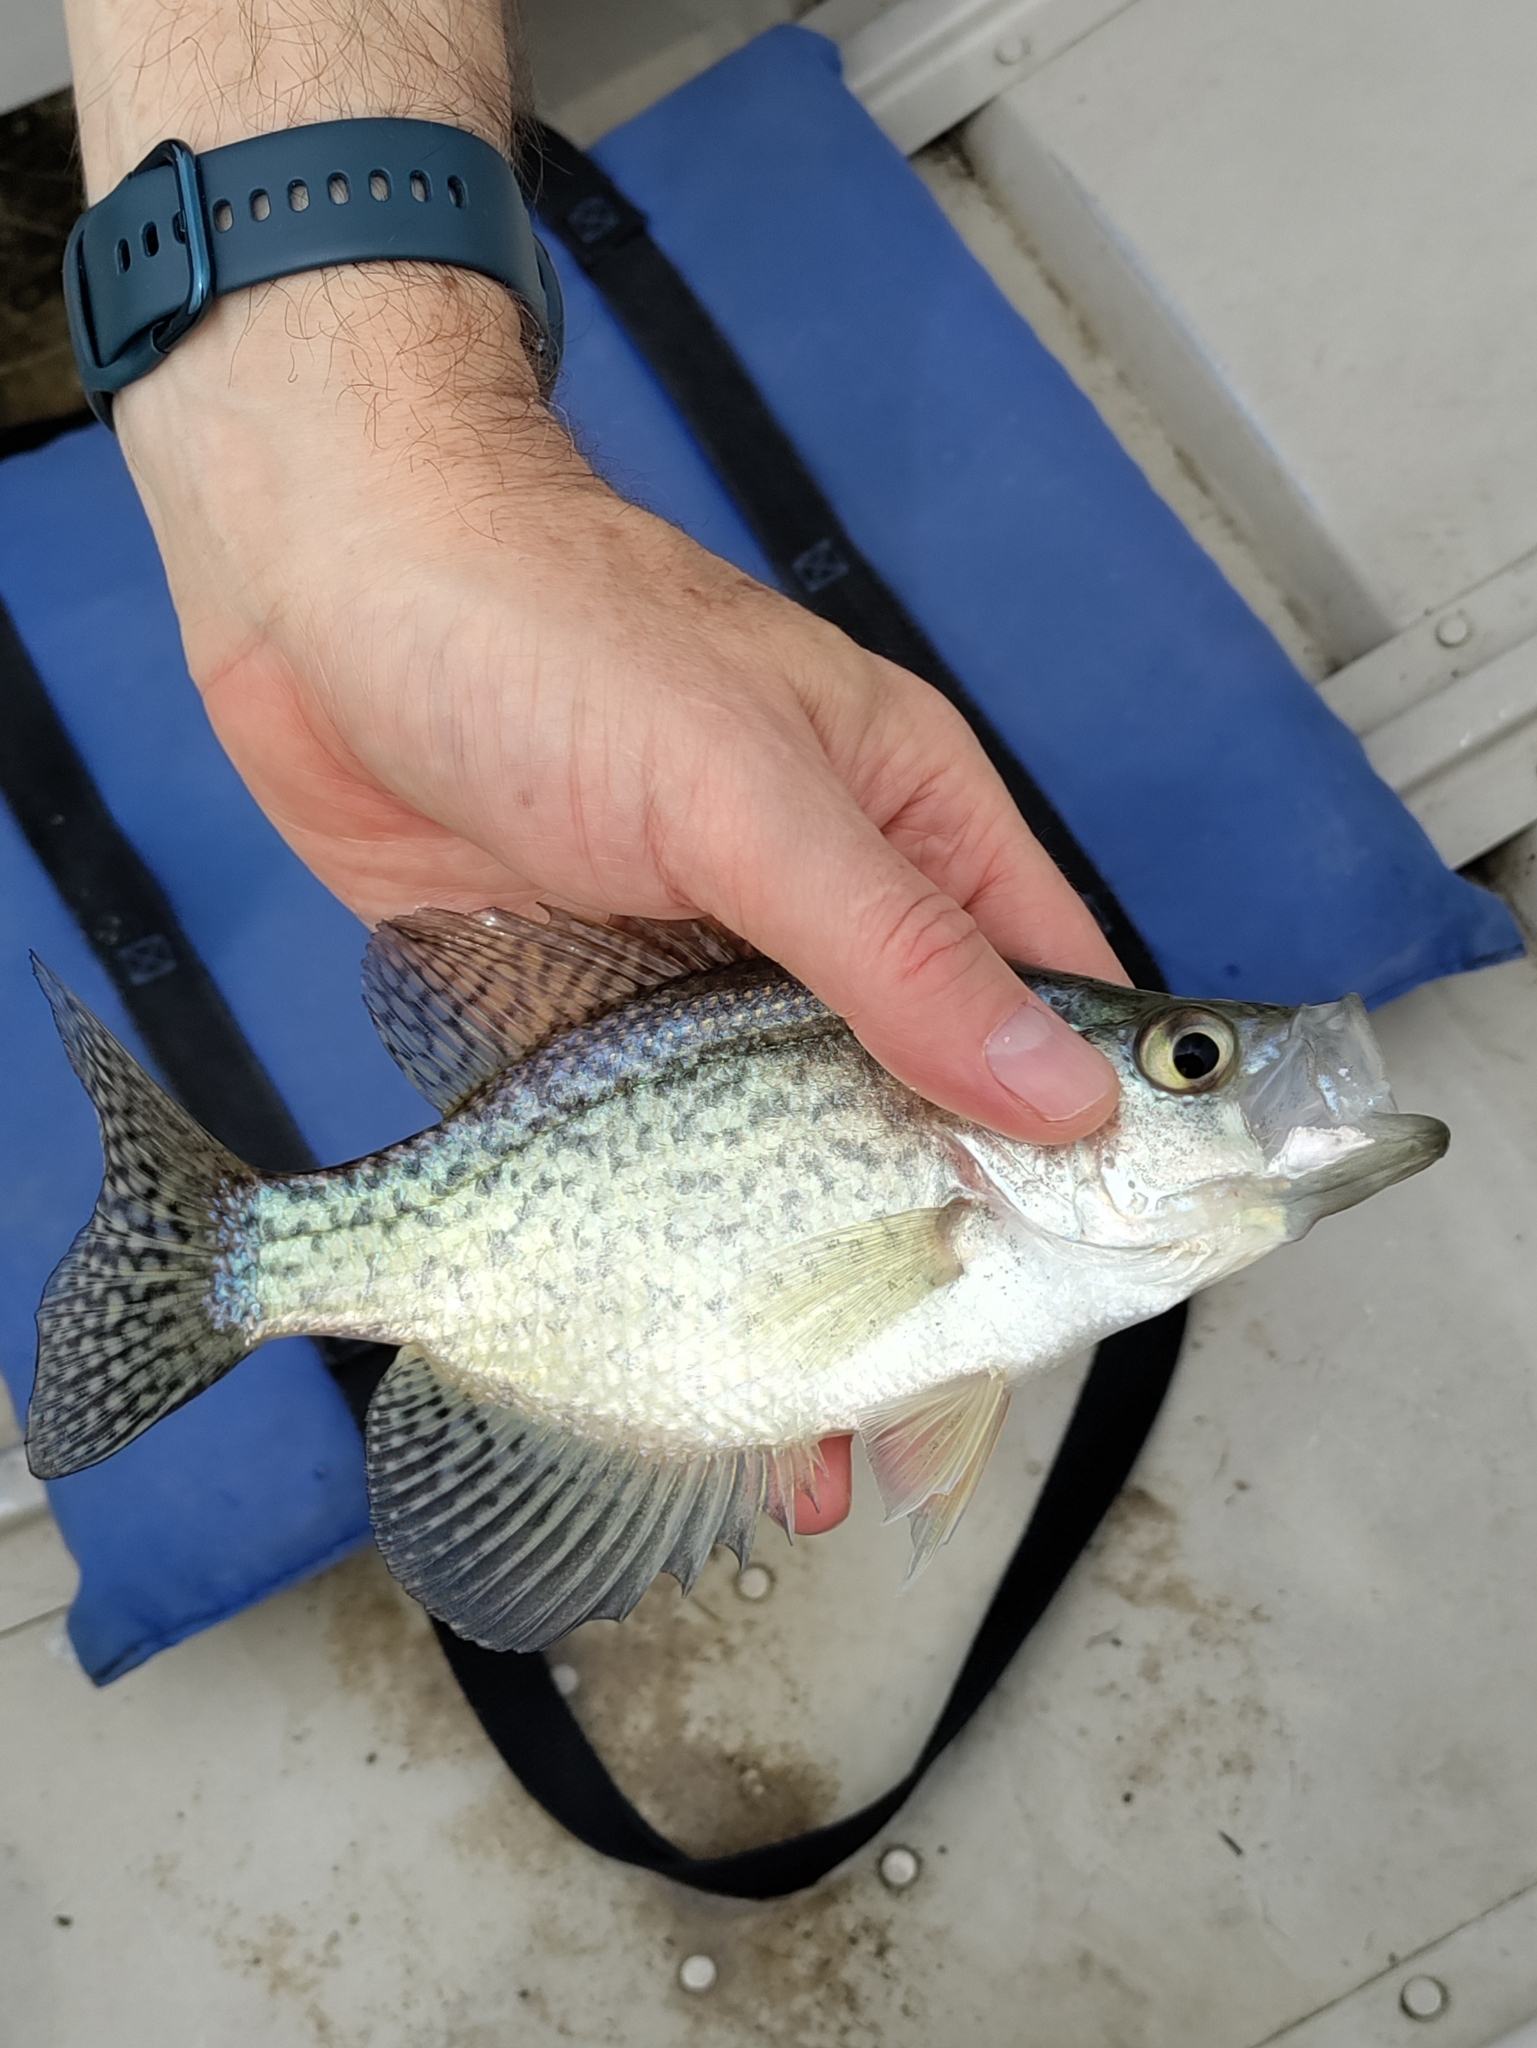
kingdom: Animalia
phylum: Chordata
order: Perciformes
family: Centrarchidae
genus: Pomoxis
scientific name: Pomoxis nigromaculatus
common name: Black crappie
